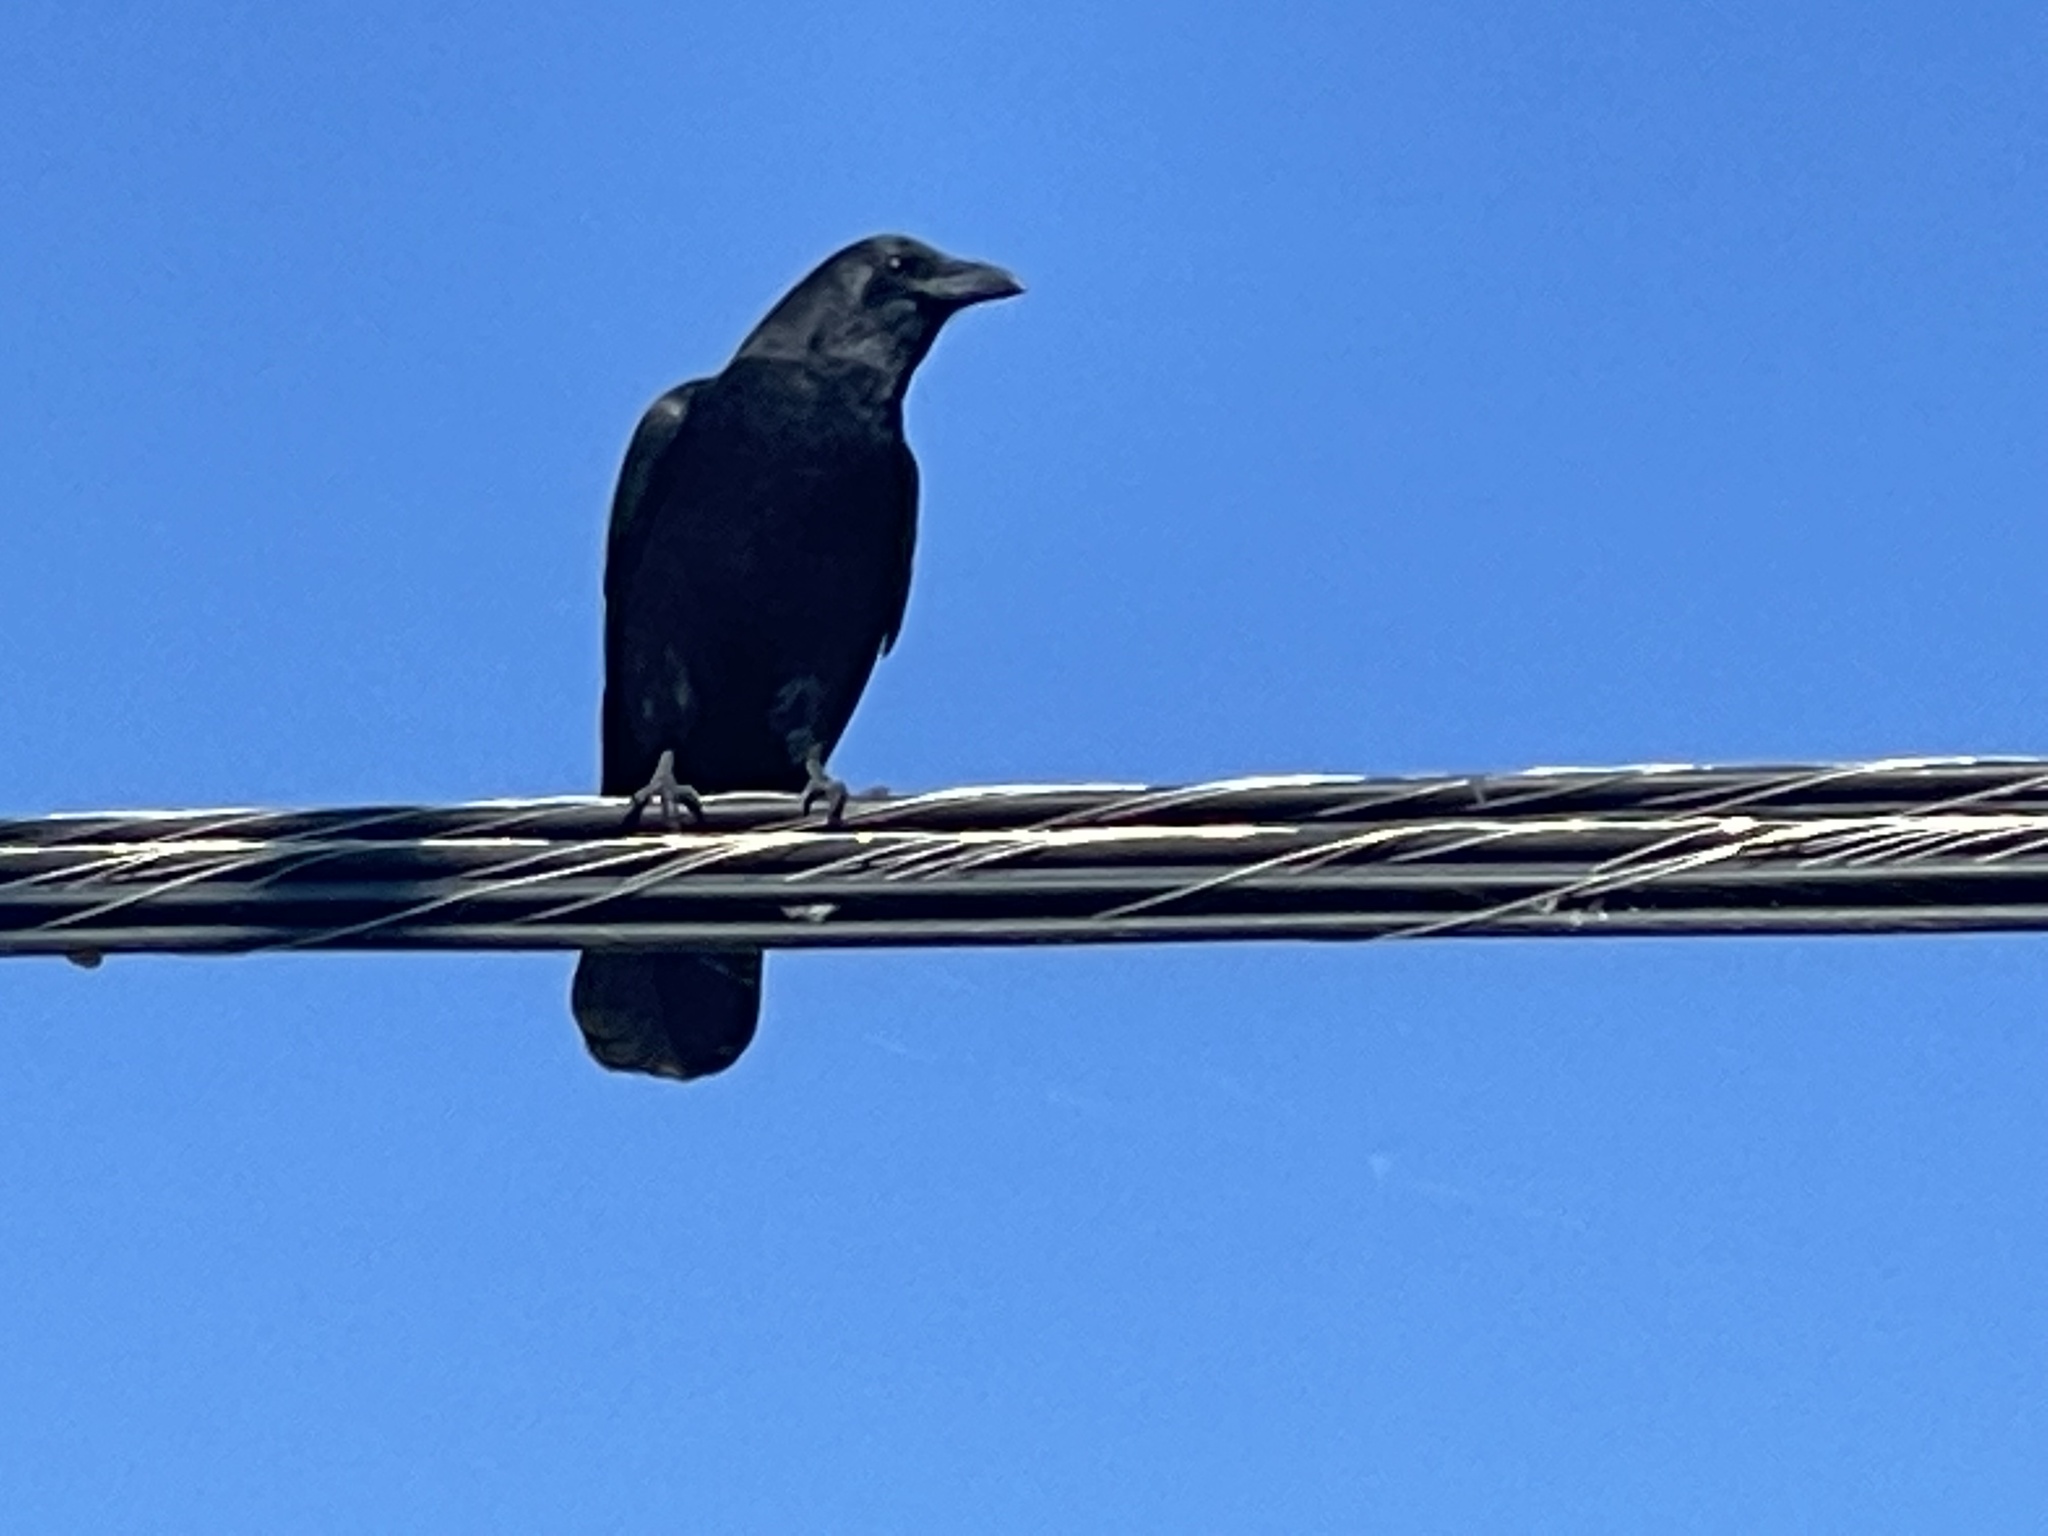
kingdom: Animalia
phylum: Chordata
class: Aves
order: Passeriformes
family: Corvidae
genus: Corvus
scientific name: Corvus brachyrhynchos
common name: American crow
